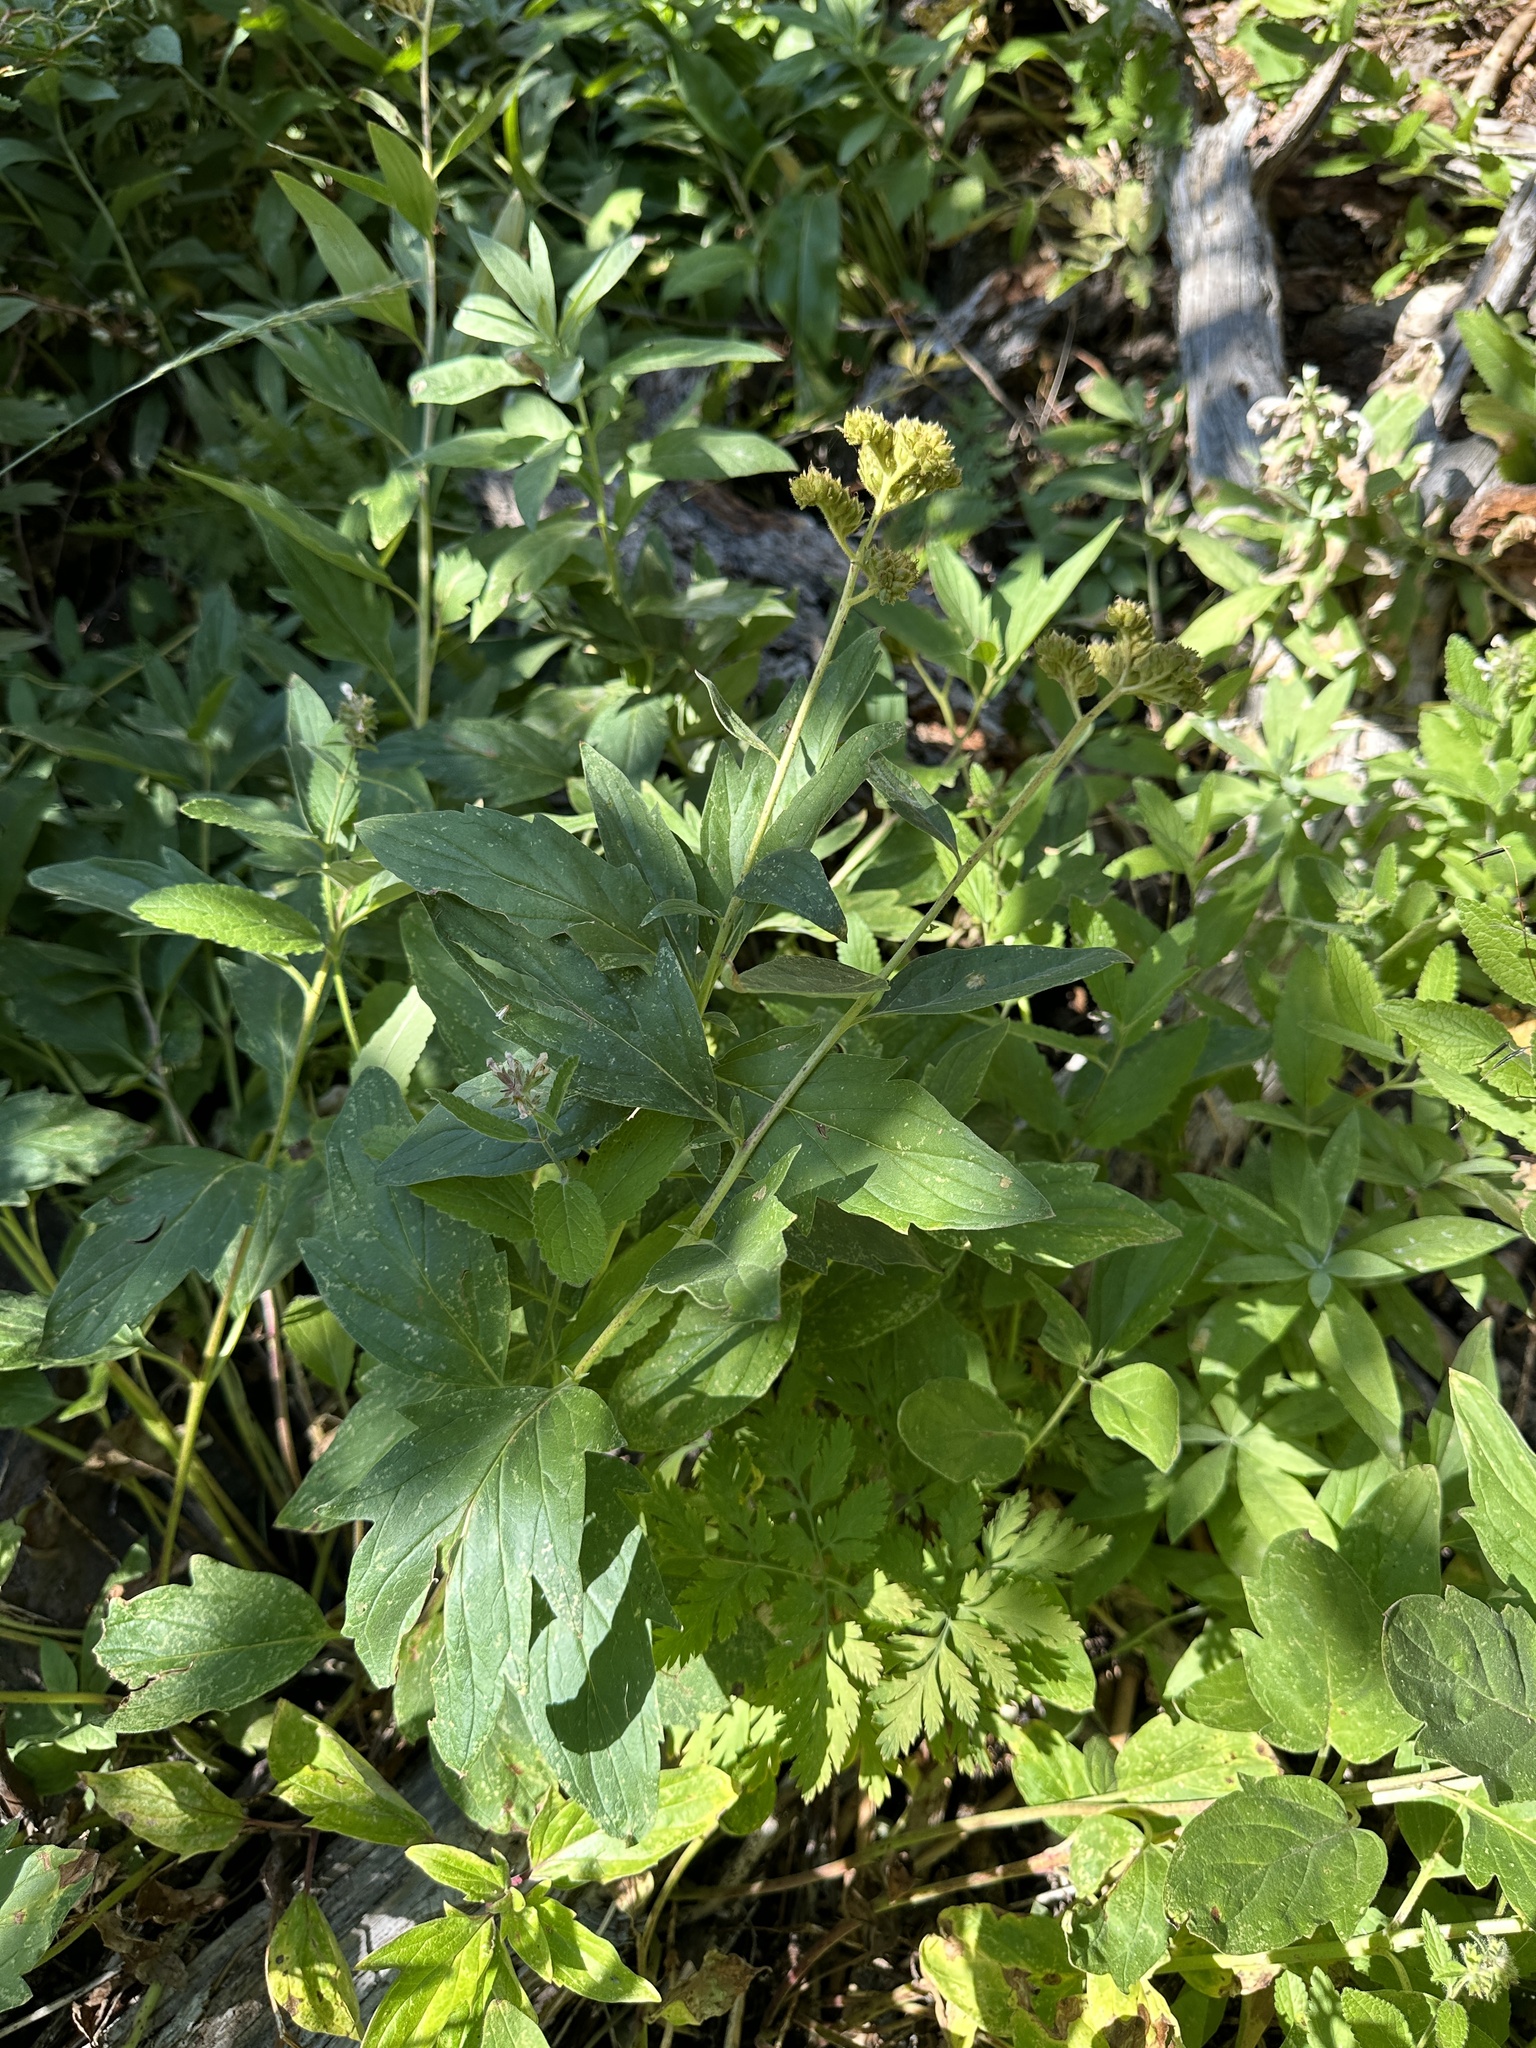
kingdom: Plantae
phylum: Tracheophyta
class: Magnoliopsida
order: Boraginales
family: Hydrophyllaceae
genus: Phacelia
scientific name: Phacelia procera
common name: Tall phacelia
